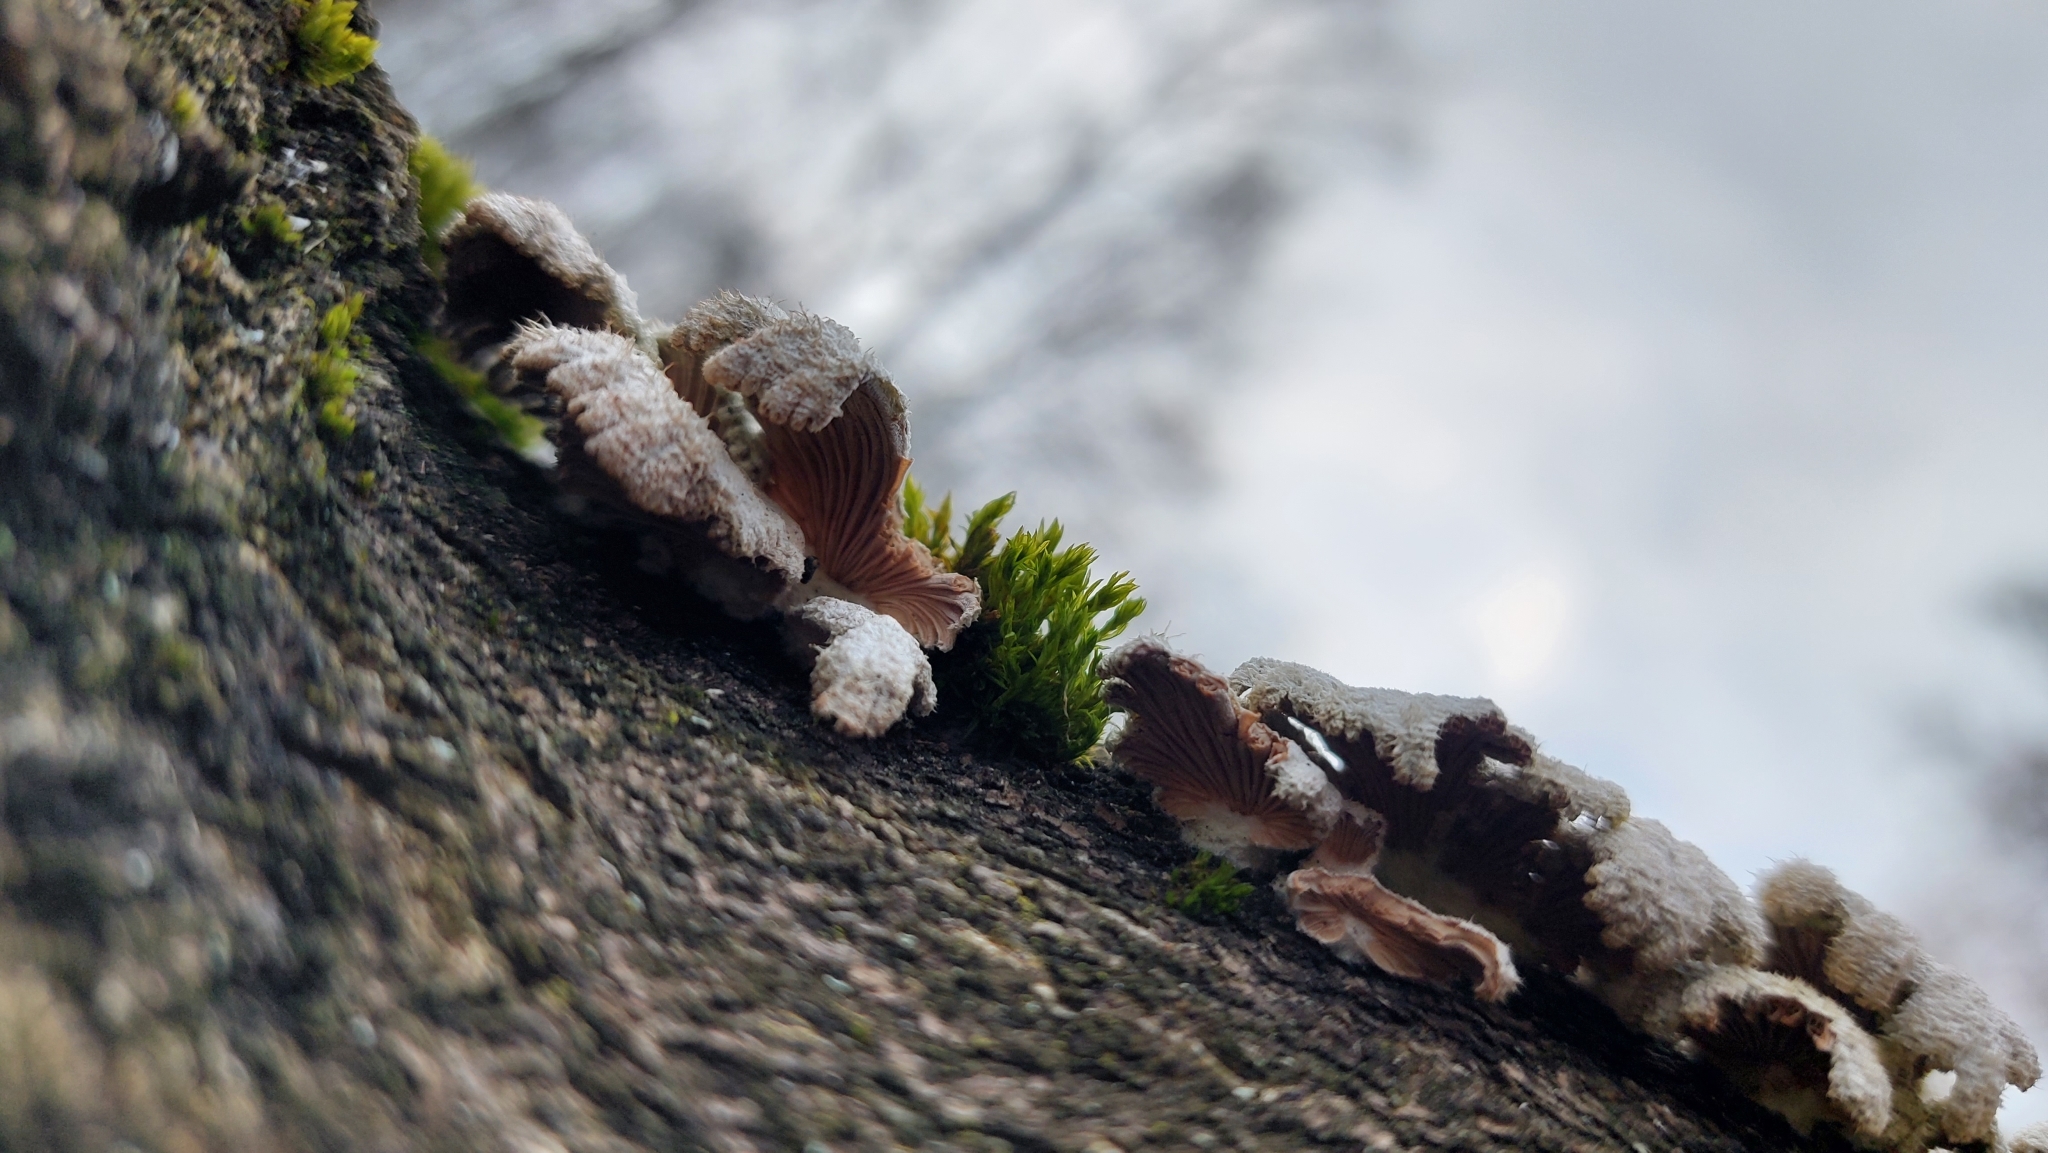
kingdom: Fungi
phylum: Basidiomycota
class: Agaricomycetes
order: Agaricales
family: Schizophyllaceae
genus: Schizophyllum
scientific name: Schizophyllum commune
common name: Common porecrust
